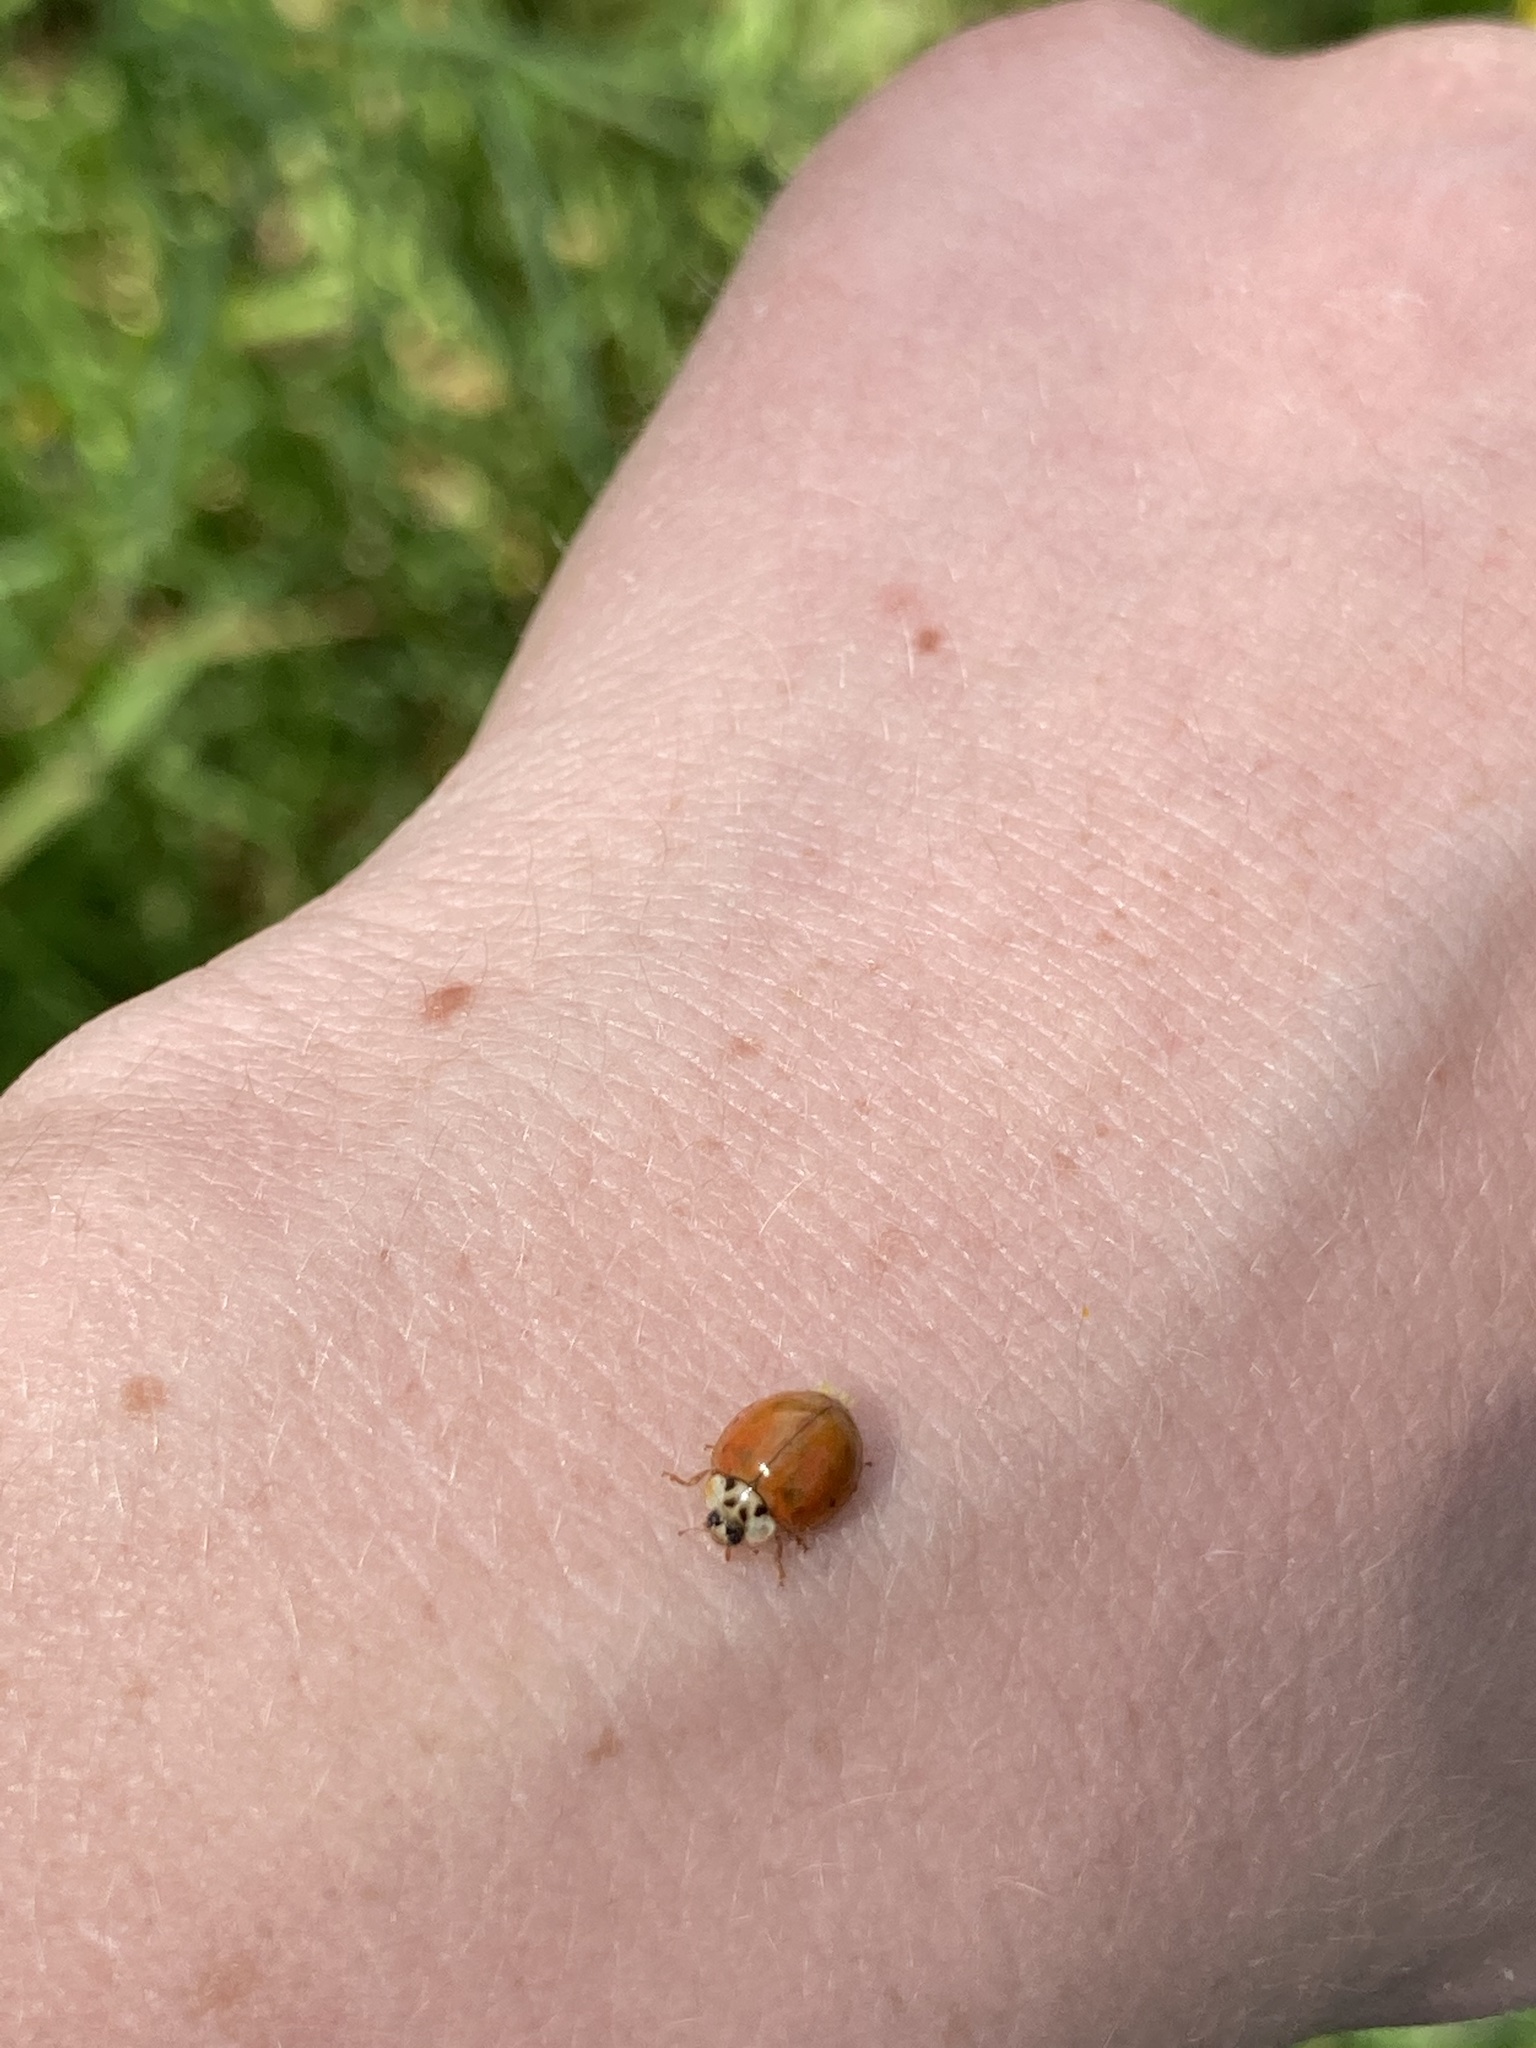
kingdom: Animalia
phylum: Arthropoda
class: Insecta
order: Coleoptera
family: Coccinellidae
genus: Harmonia
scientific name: Harmonia axyridis
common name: Harlequin ladybird
